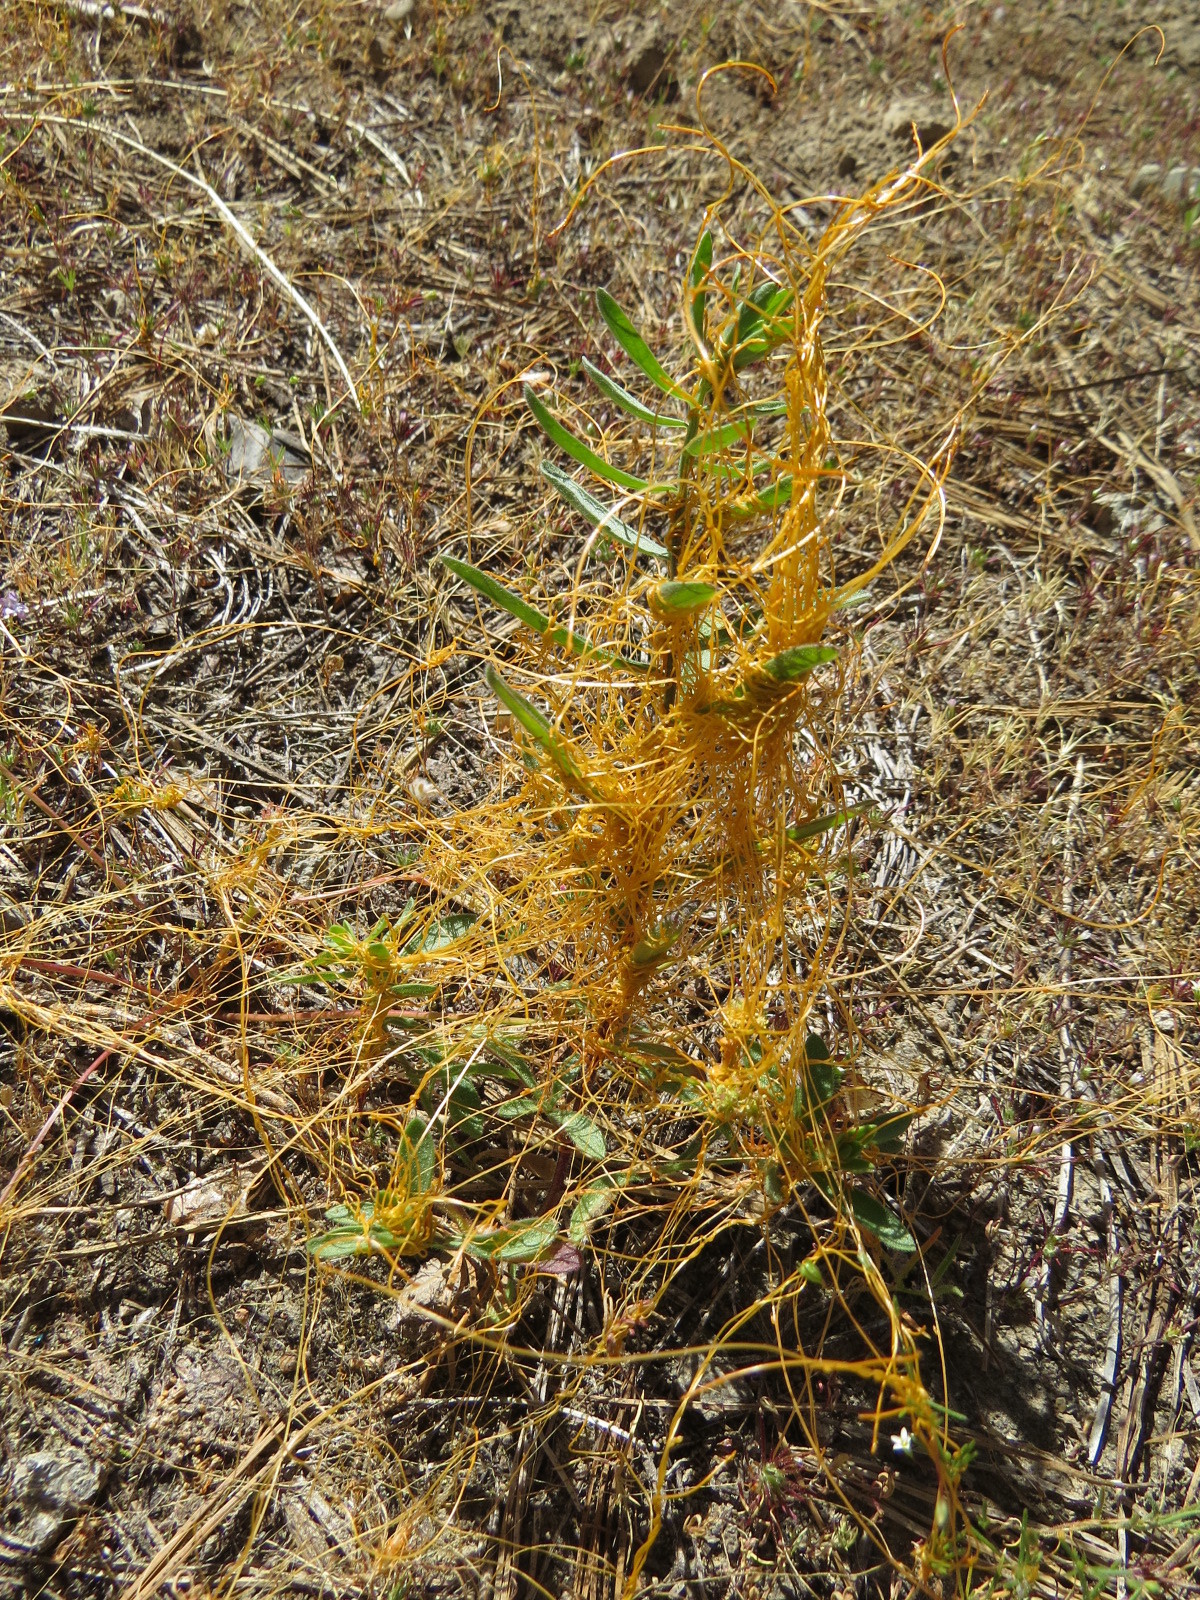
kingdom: Plantae
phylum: Tracheophyta
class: Magnoliopsida
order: Solanales
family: Convolvulaceae
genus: Cuscuta
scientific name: Cuscuta californica
